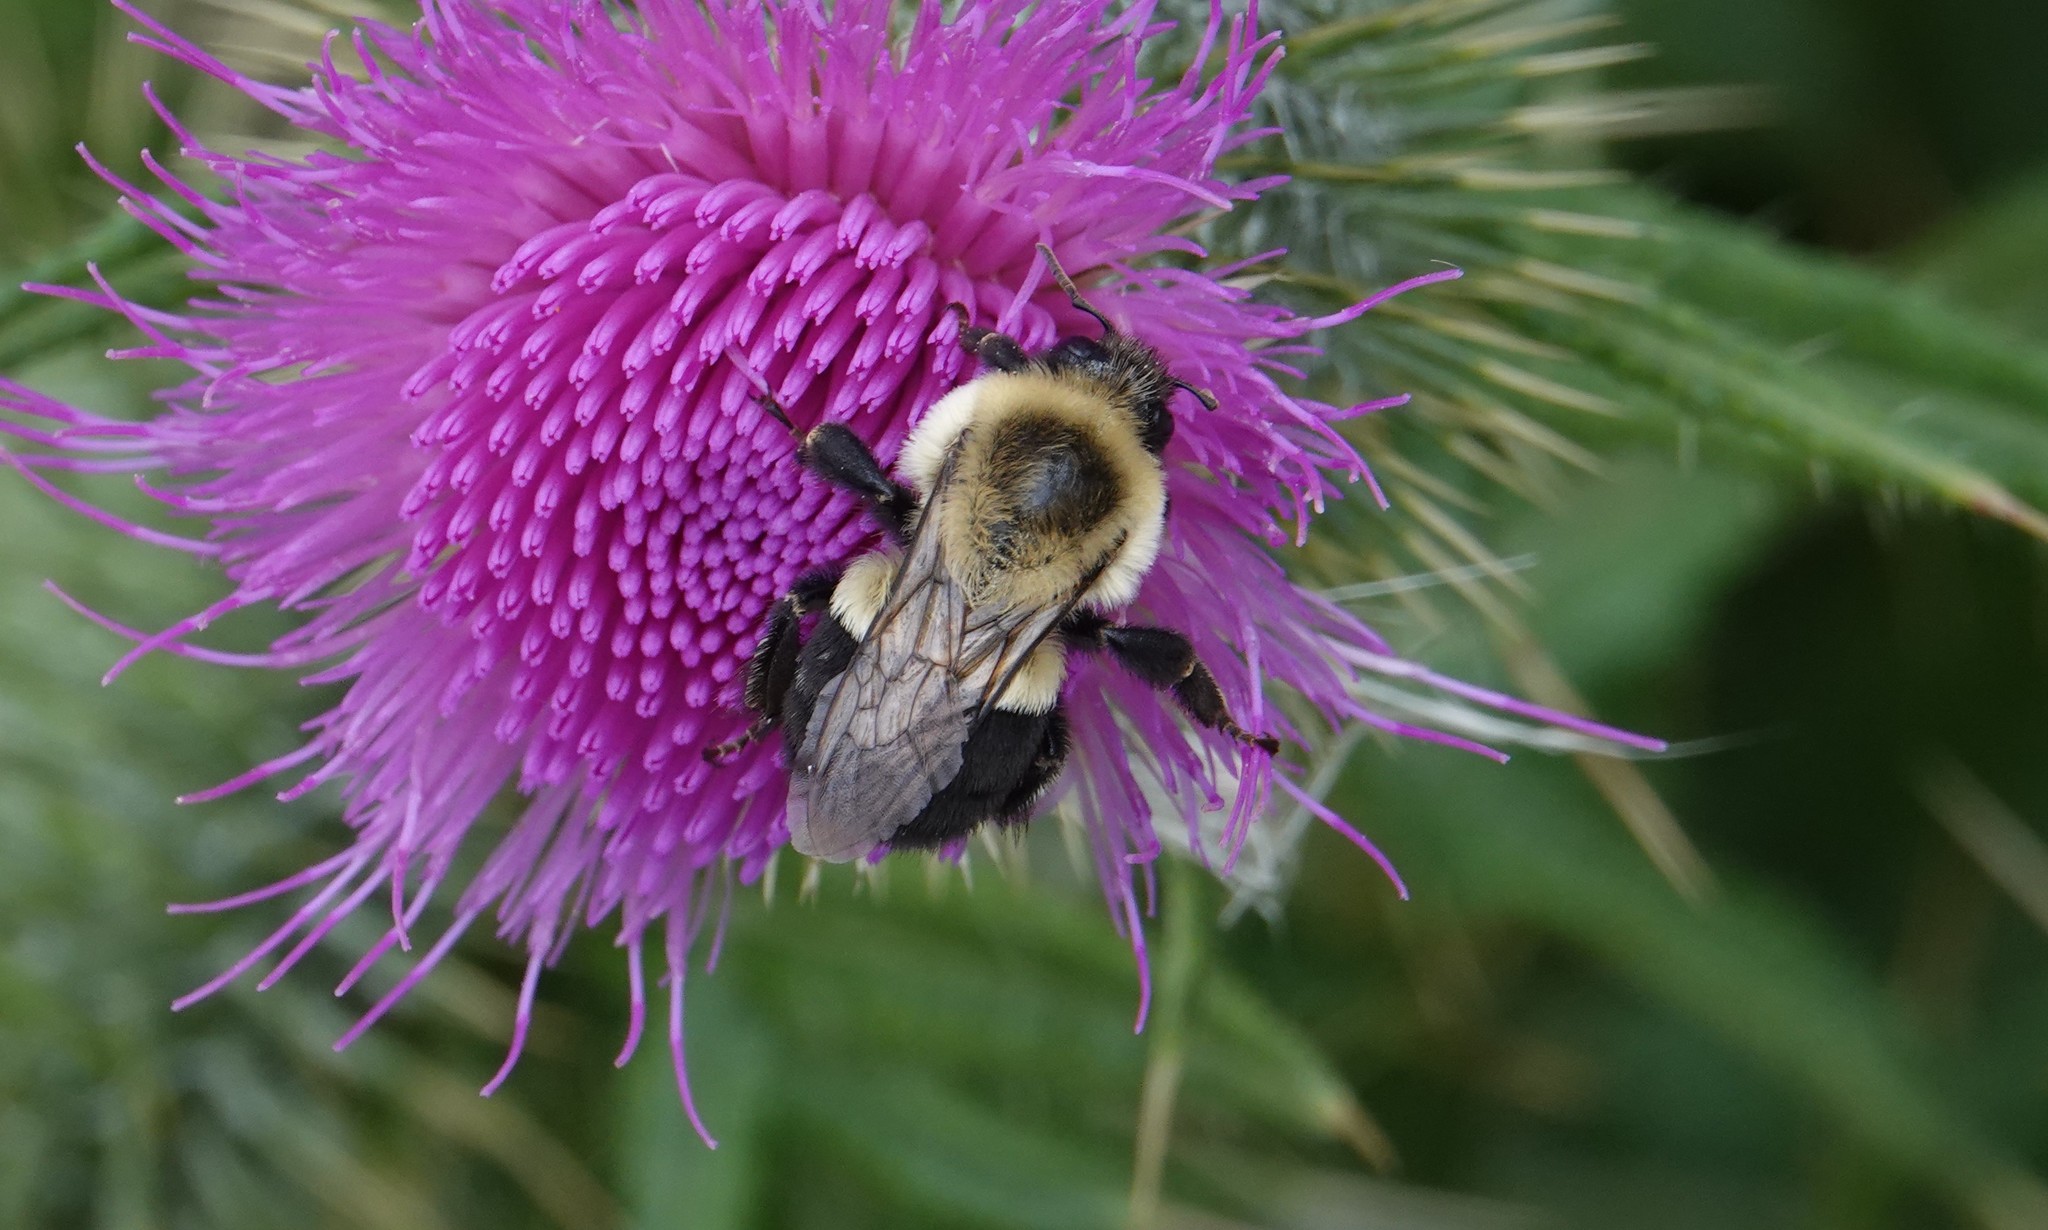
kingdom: Animalia
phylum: Arthropoda
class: Insecta
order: Hymenoptera
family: Apidae
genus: Bombus
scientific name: Bombus impatiens
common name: Common eastern bumble bee
